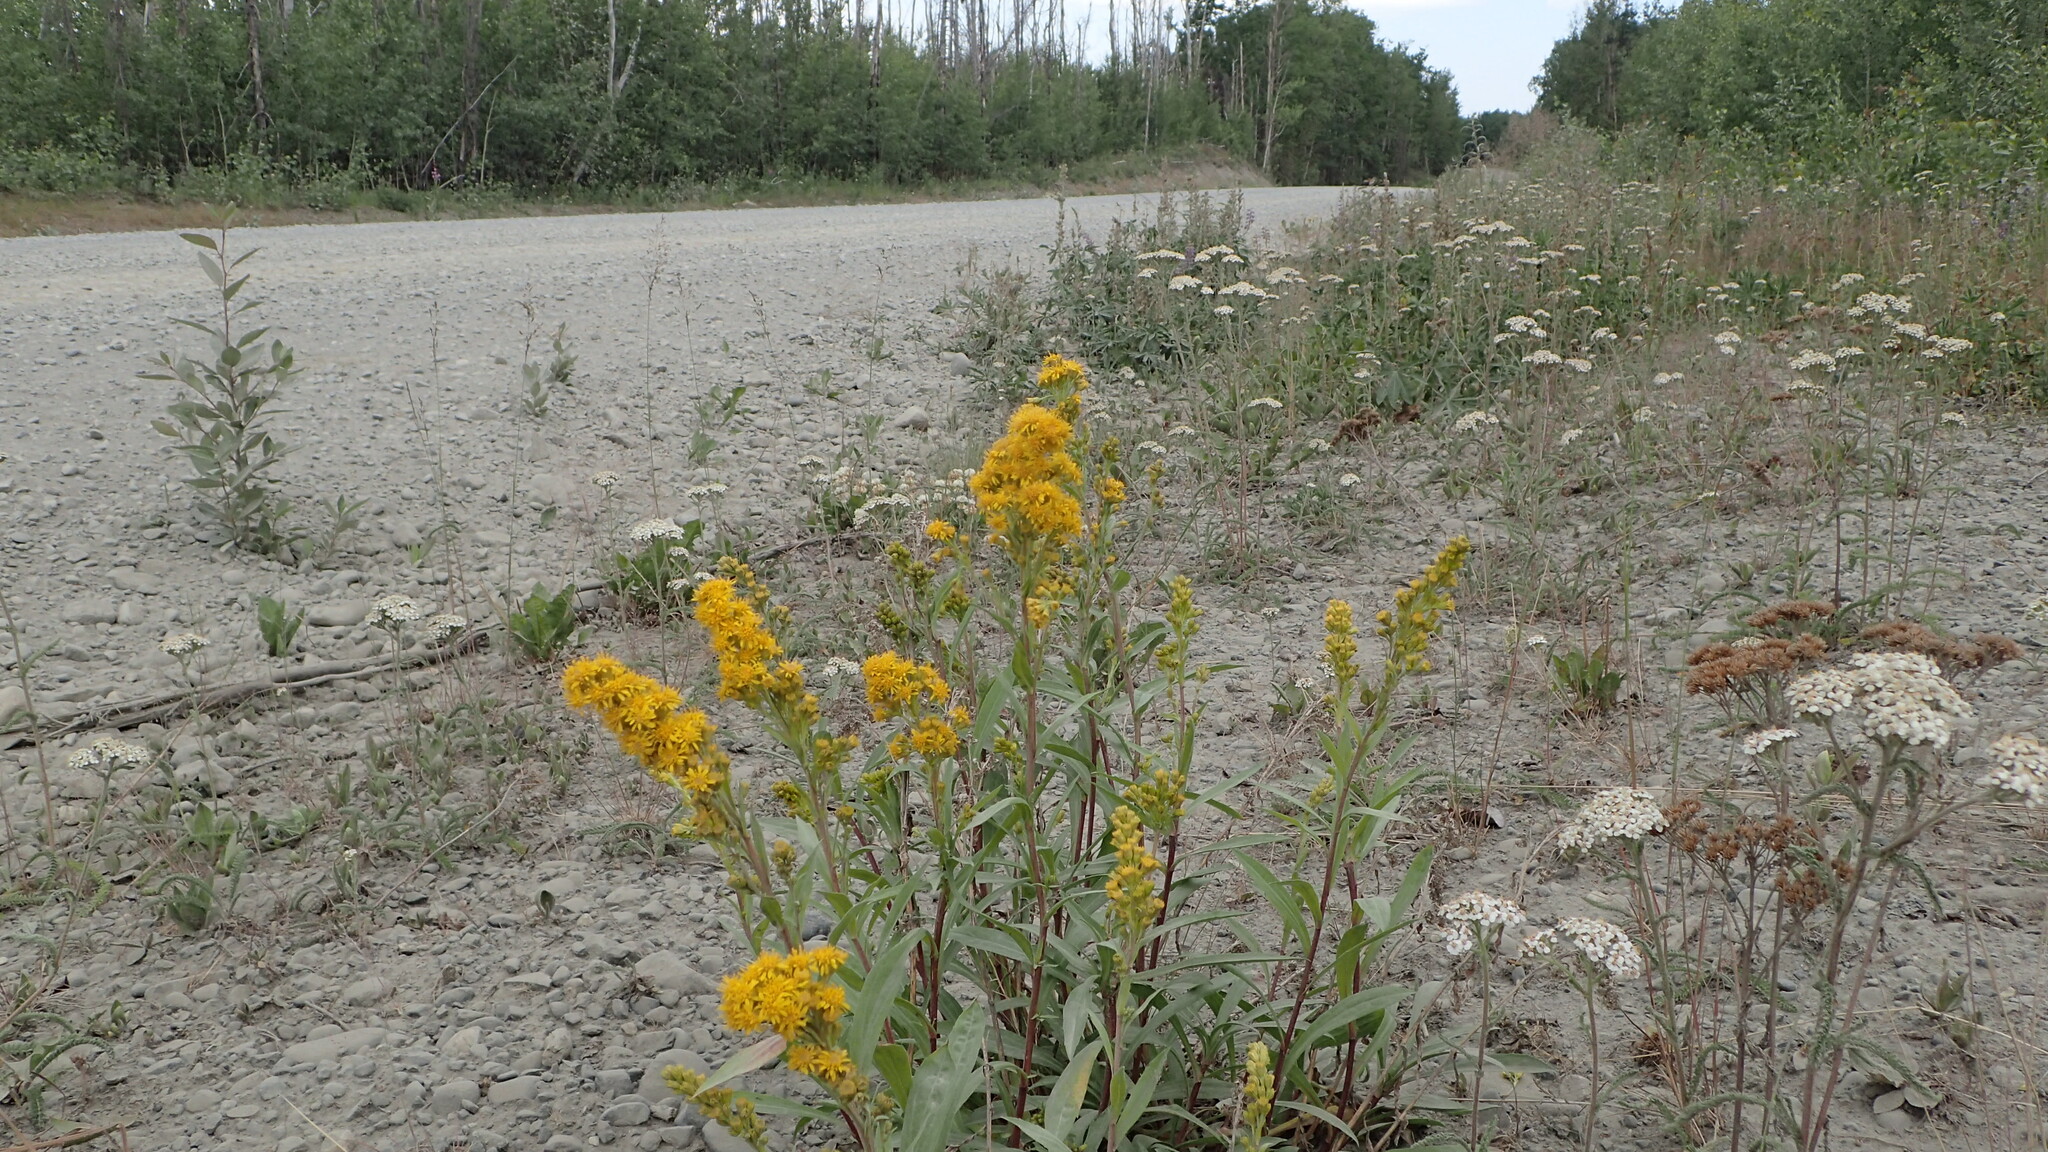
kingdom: Plantae
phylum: Tracheophyta
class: Magnoliopsida
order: Asterales
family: Asteraceae
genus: Solidago
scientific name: Solidago lepida
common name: Western canada goldenrod
